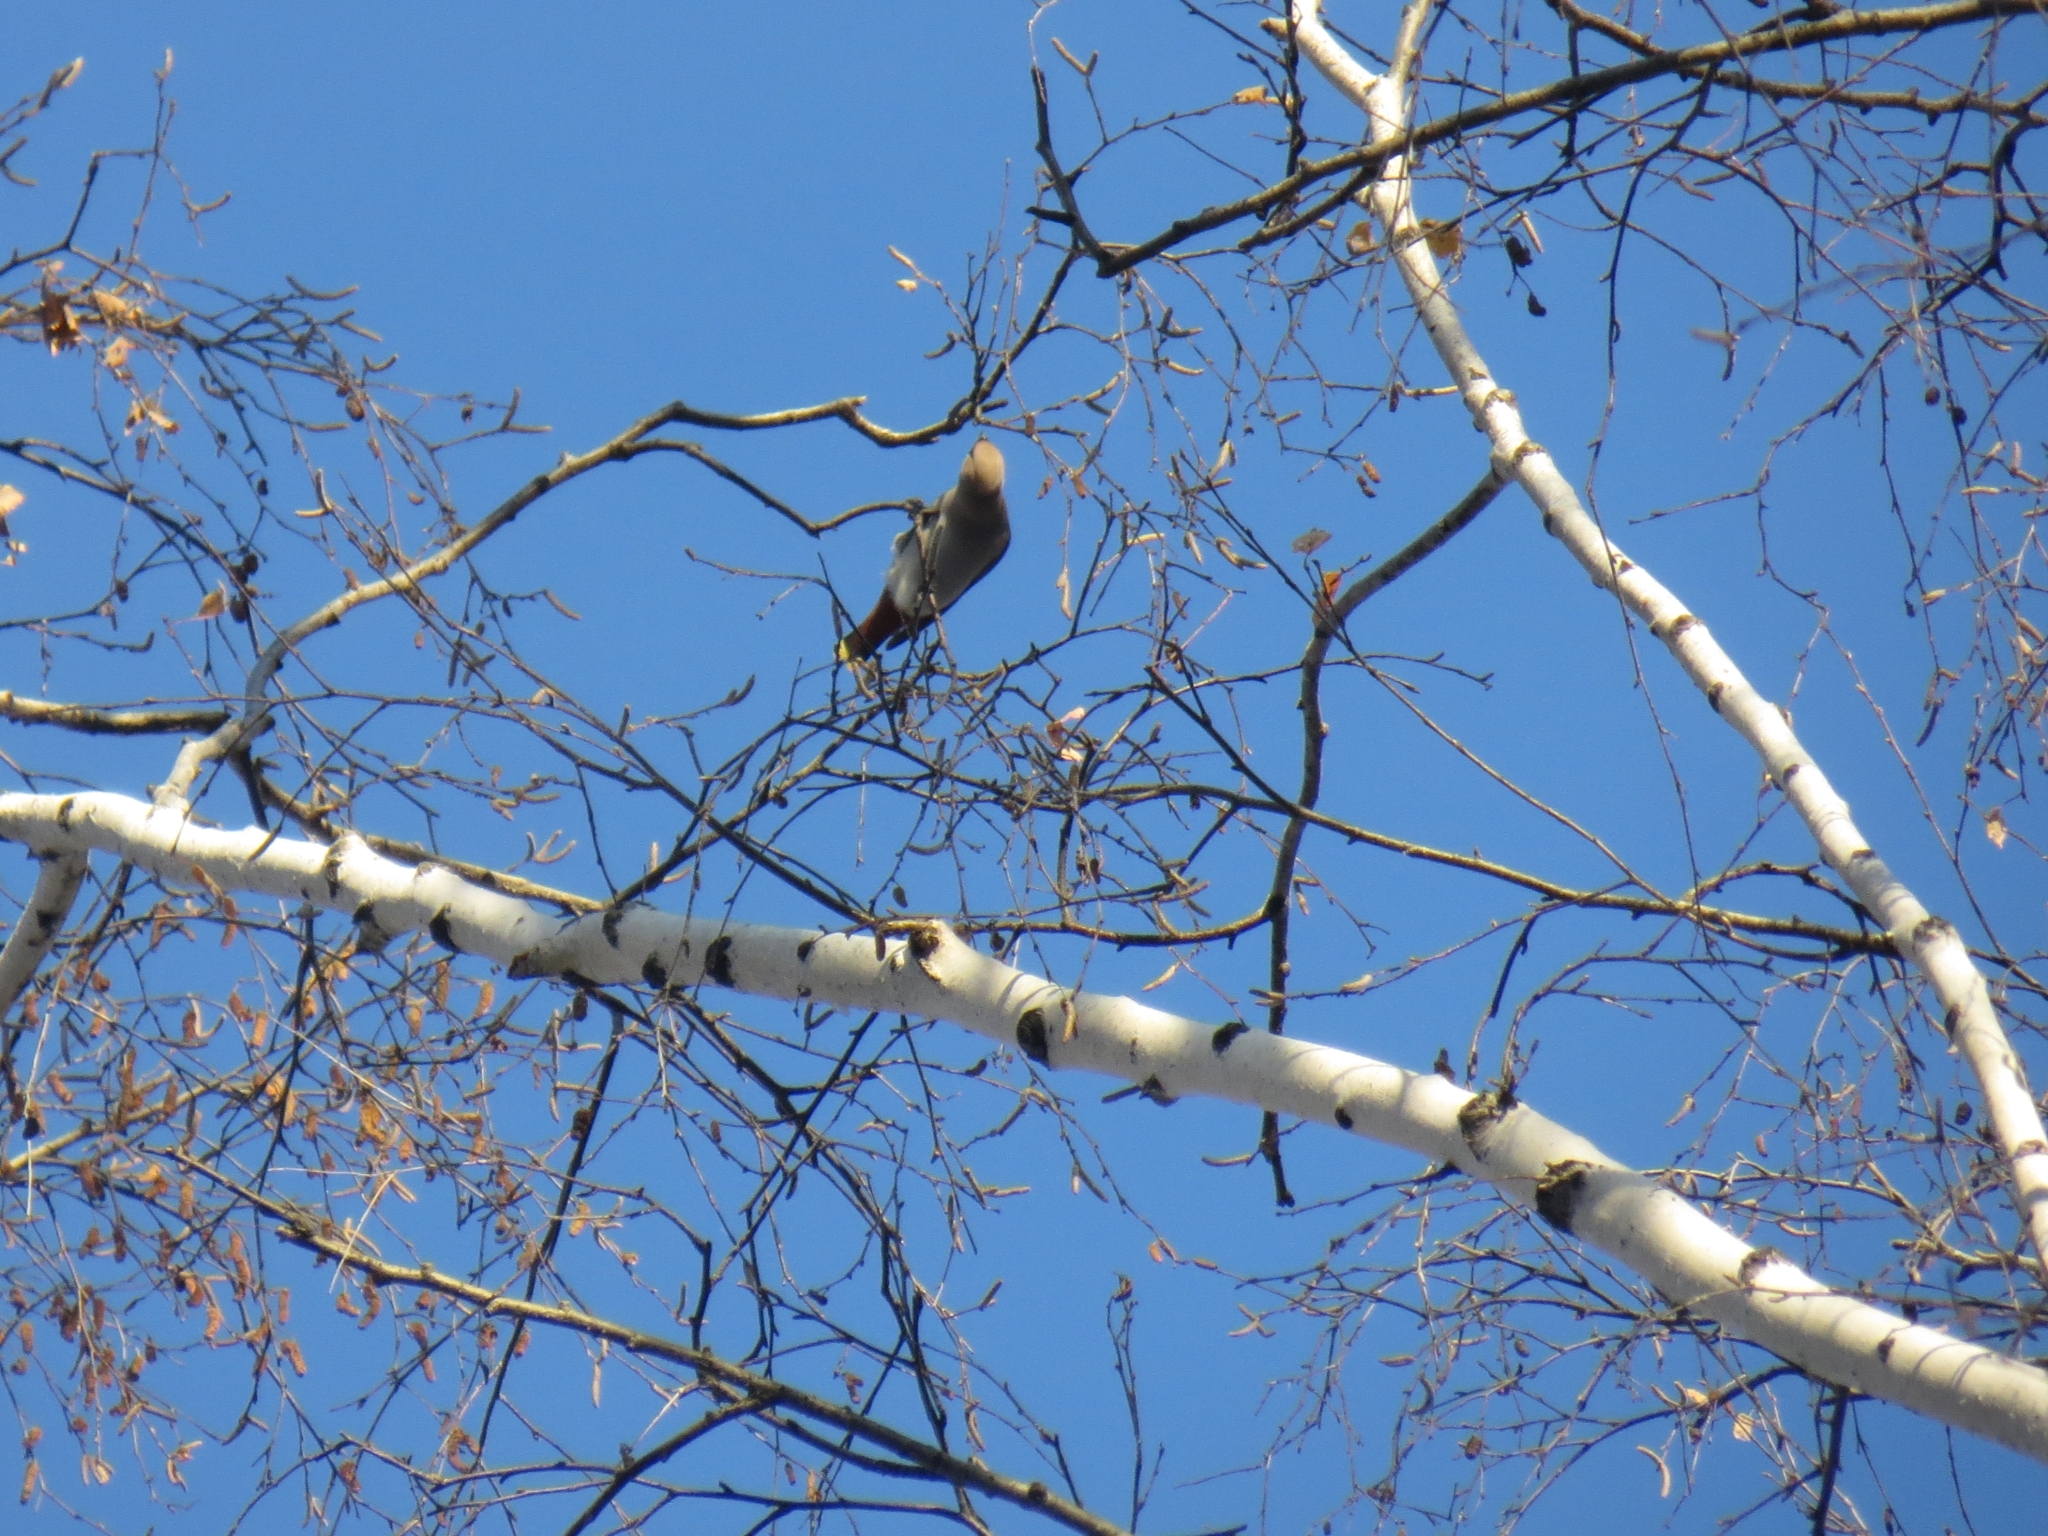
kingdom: Animalia
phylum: Chordata
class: Aves
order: Passeriformes
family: Bombycillidae
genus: Bombycilla
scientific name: Bombycilla garrulus
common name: Bohemian waxwing
